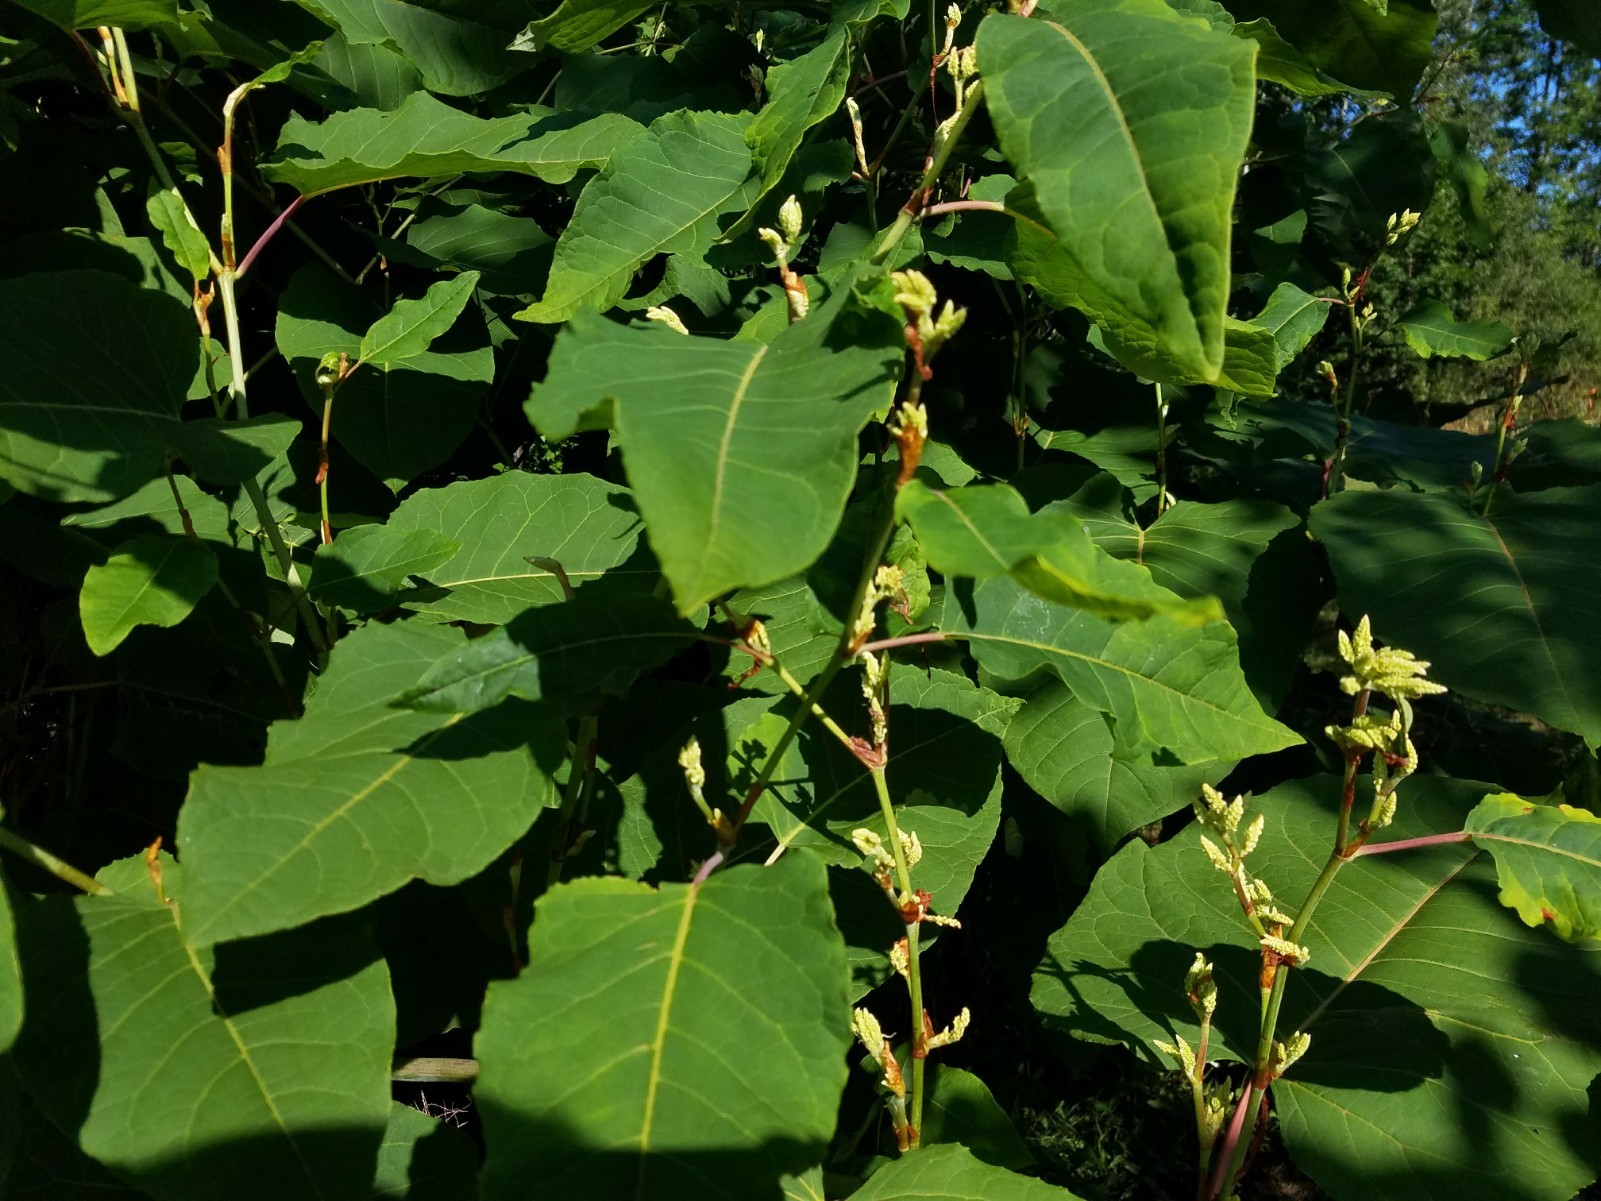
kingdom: Plantae
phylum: Tracheophyta
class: Magnoliopsida
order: Caryophyllales
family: Polygonaceae
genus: Reynoutria
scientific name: Reynoutria japonica
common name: Japanese knotweed
